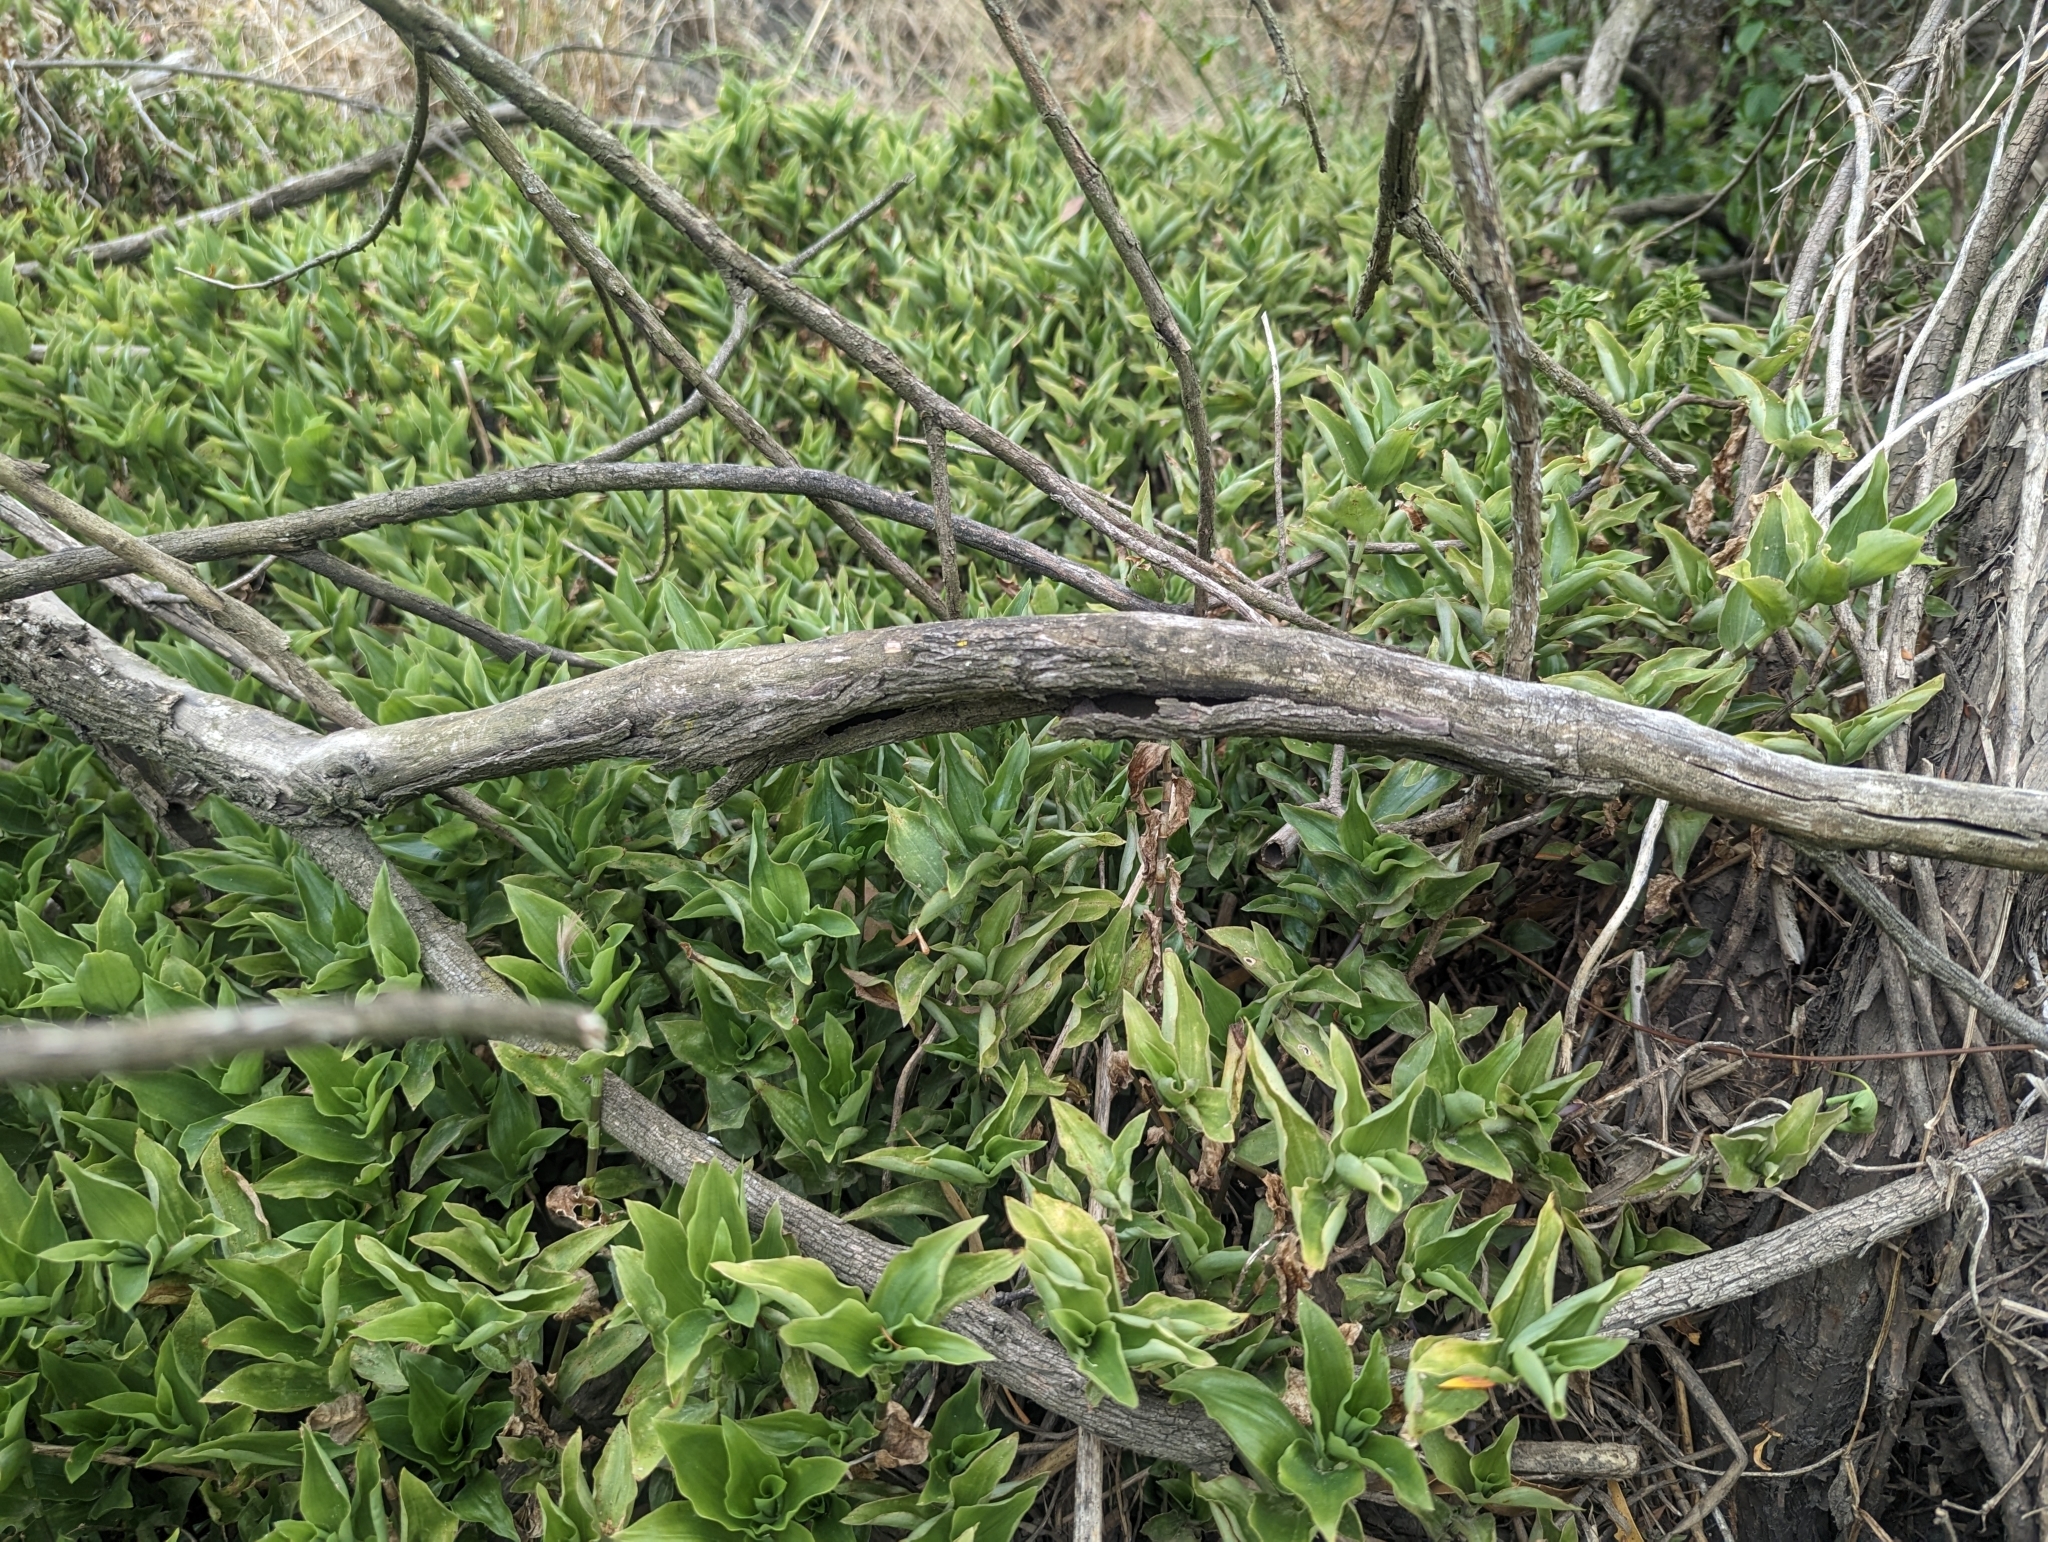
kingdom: Plantae
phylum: Tracheophyta
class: Liliopsida
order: Commelinales
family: Commelinaceae
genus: Tradescantia
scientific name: Tradescantia fluminensis
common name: Wandering-jew
